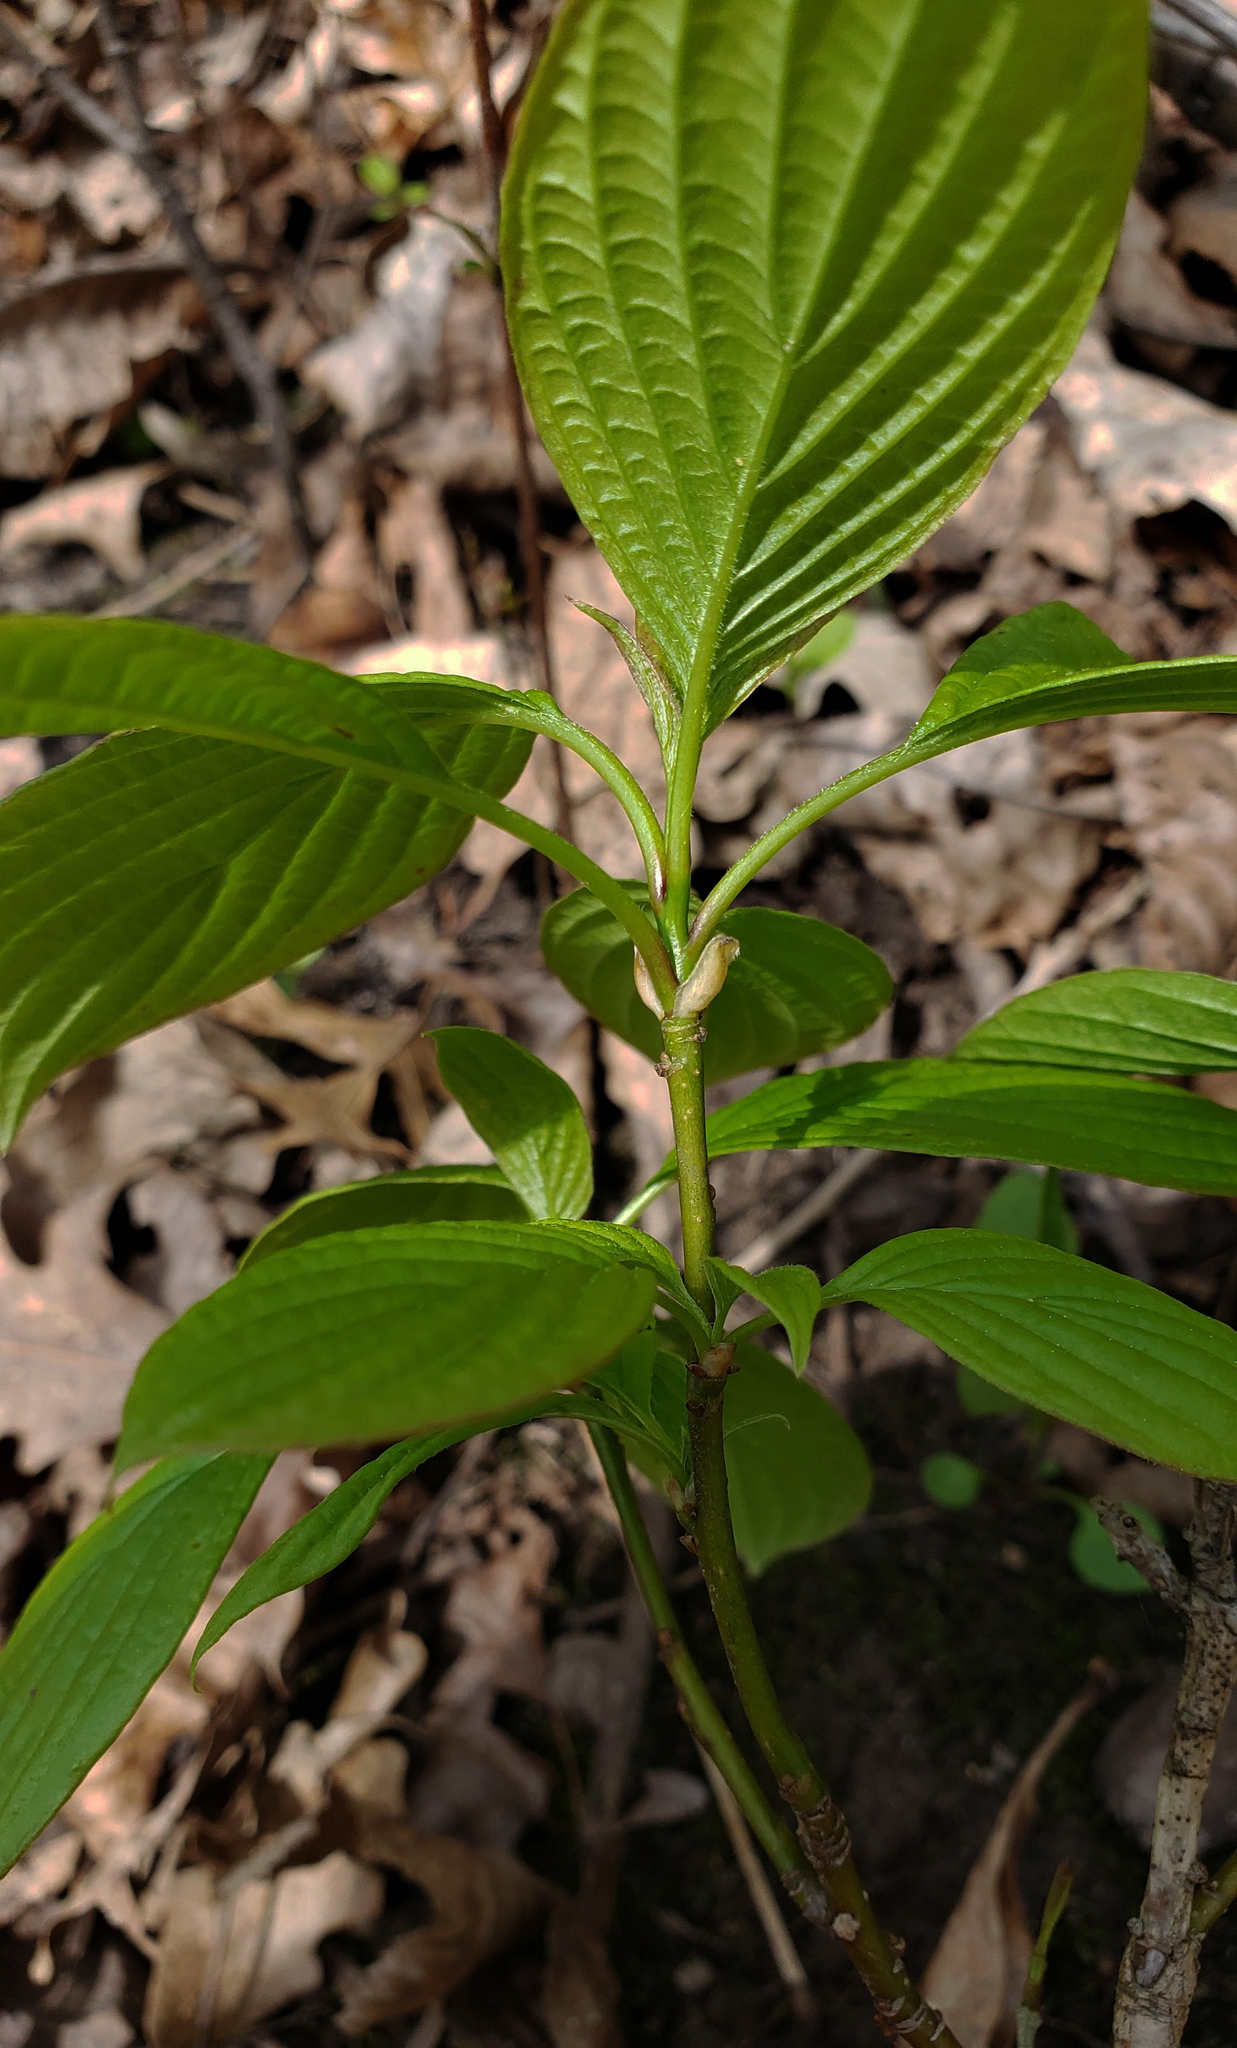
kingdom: Plantae
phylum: Tracheophyta
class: Magnoliopsida
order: Cornales
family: Cornaceae
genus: Cornus
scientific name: Cornus alternifolia
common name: Pagoda dogwood
